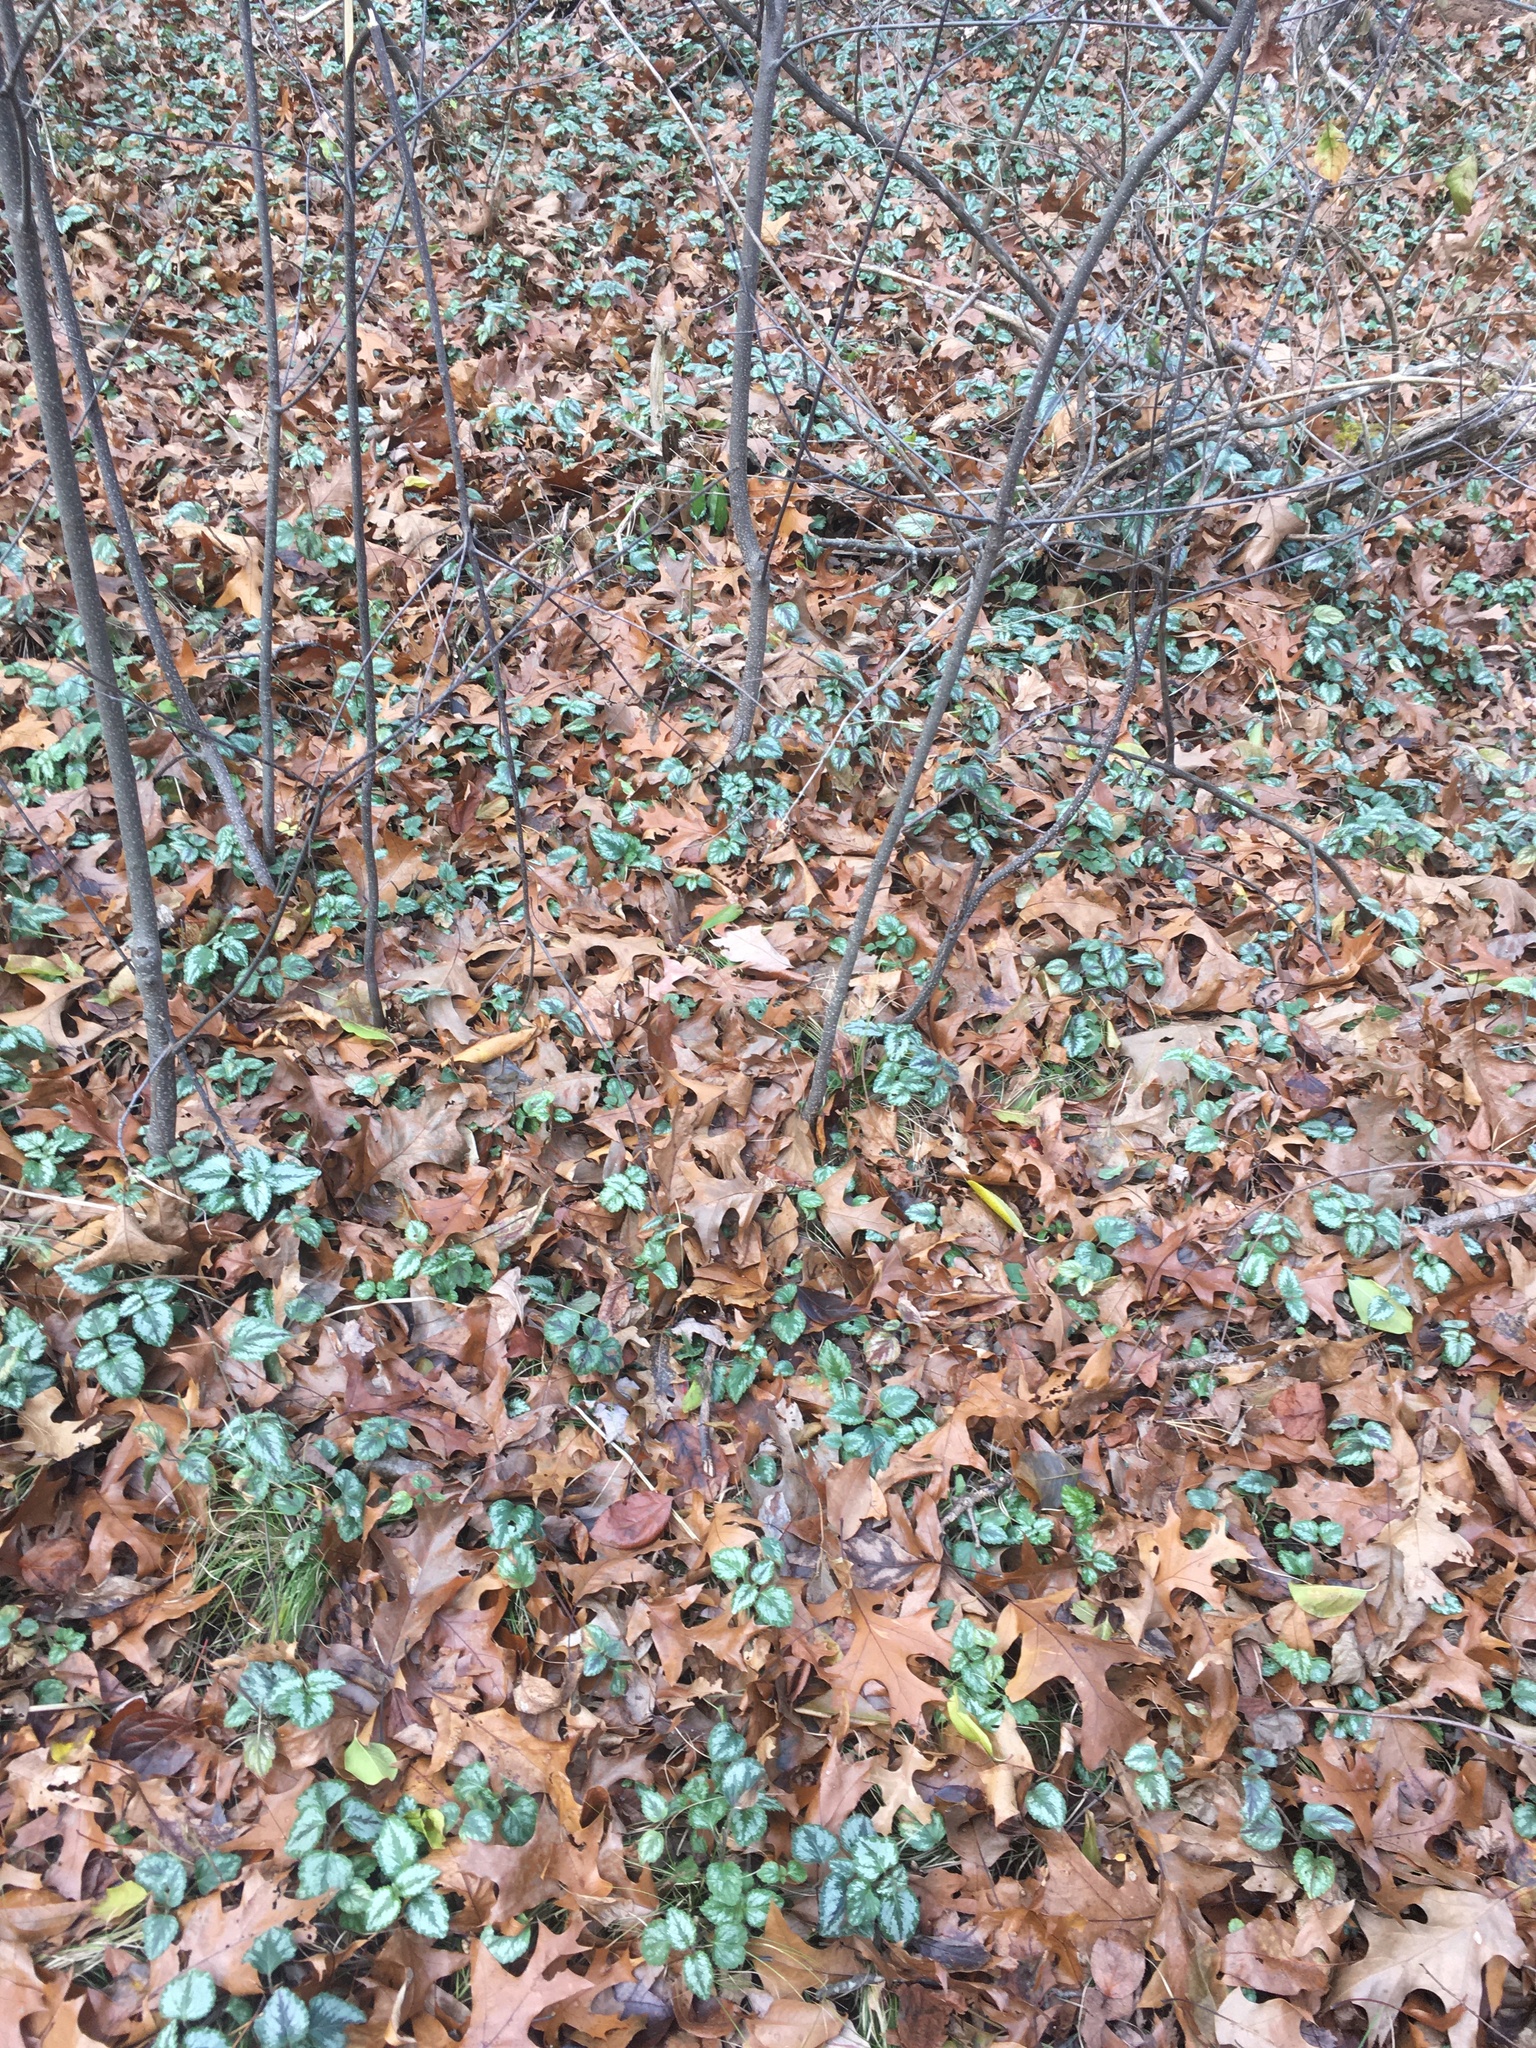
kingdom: Plantae
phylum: Tracheophyta
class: Magnoliopsida
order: Lamiales
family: Lamiaceae
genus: Lamium
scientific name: Lamium galeobdolon
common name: Yellow archangel
